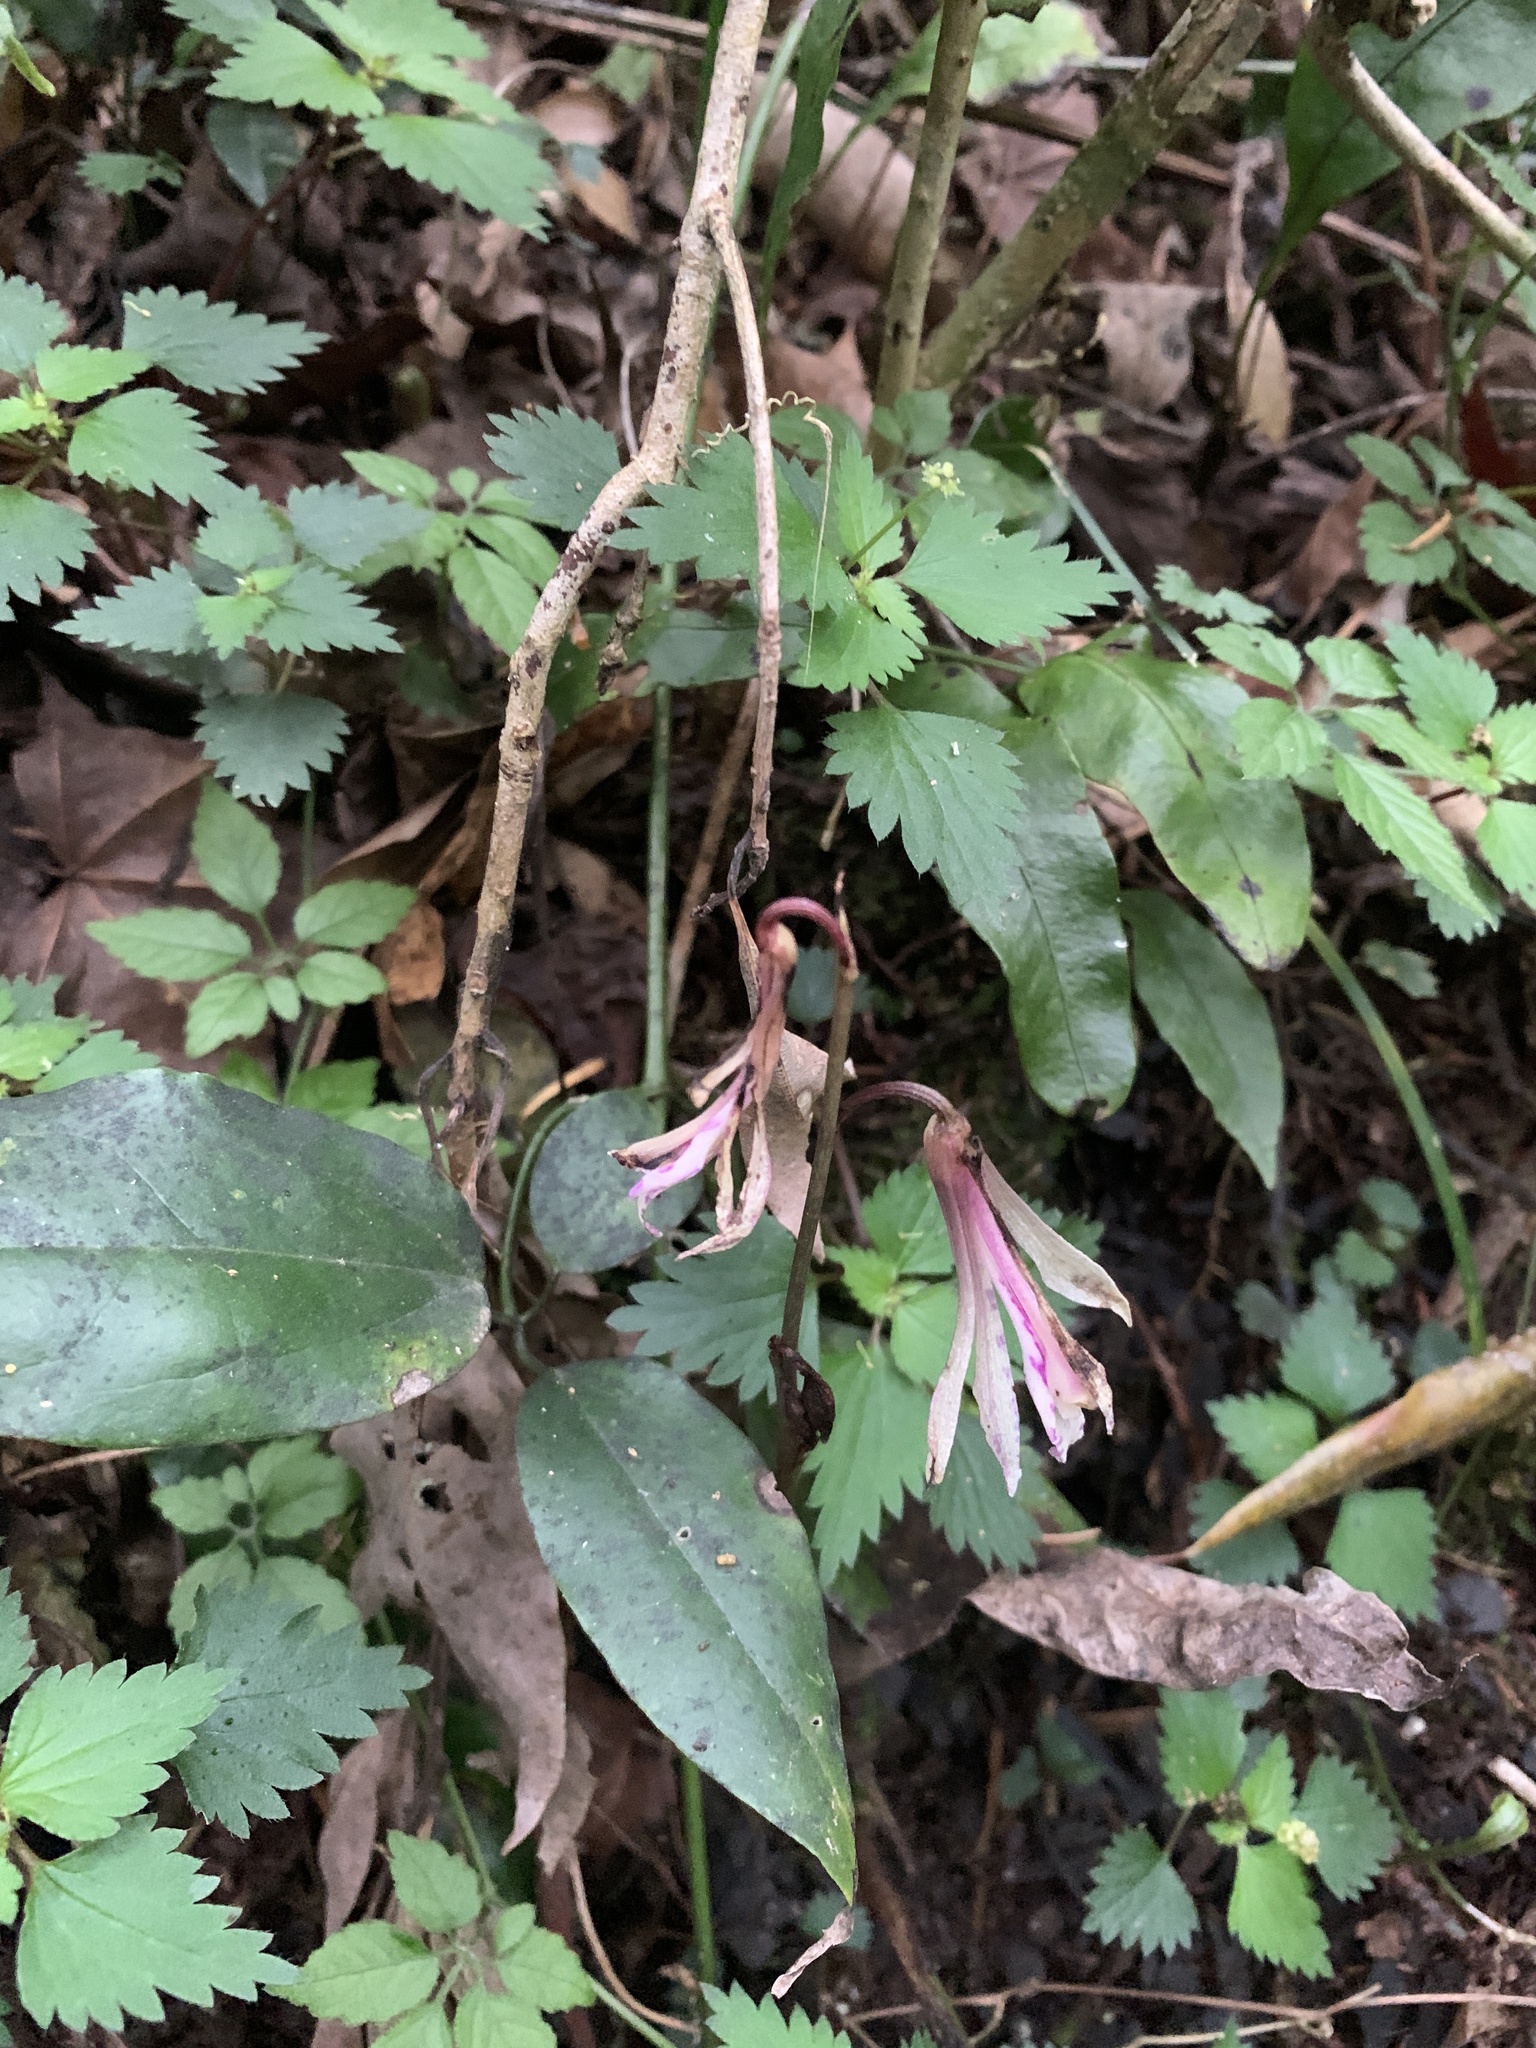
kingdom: Plantae
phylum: Tracheophyta
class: Liliopsida
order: Asparagales
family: Orchidaceae
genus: Cremastra
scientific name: Cremastra appendiculata
